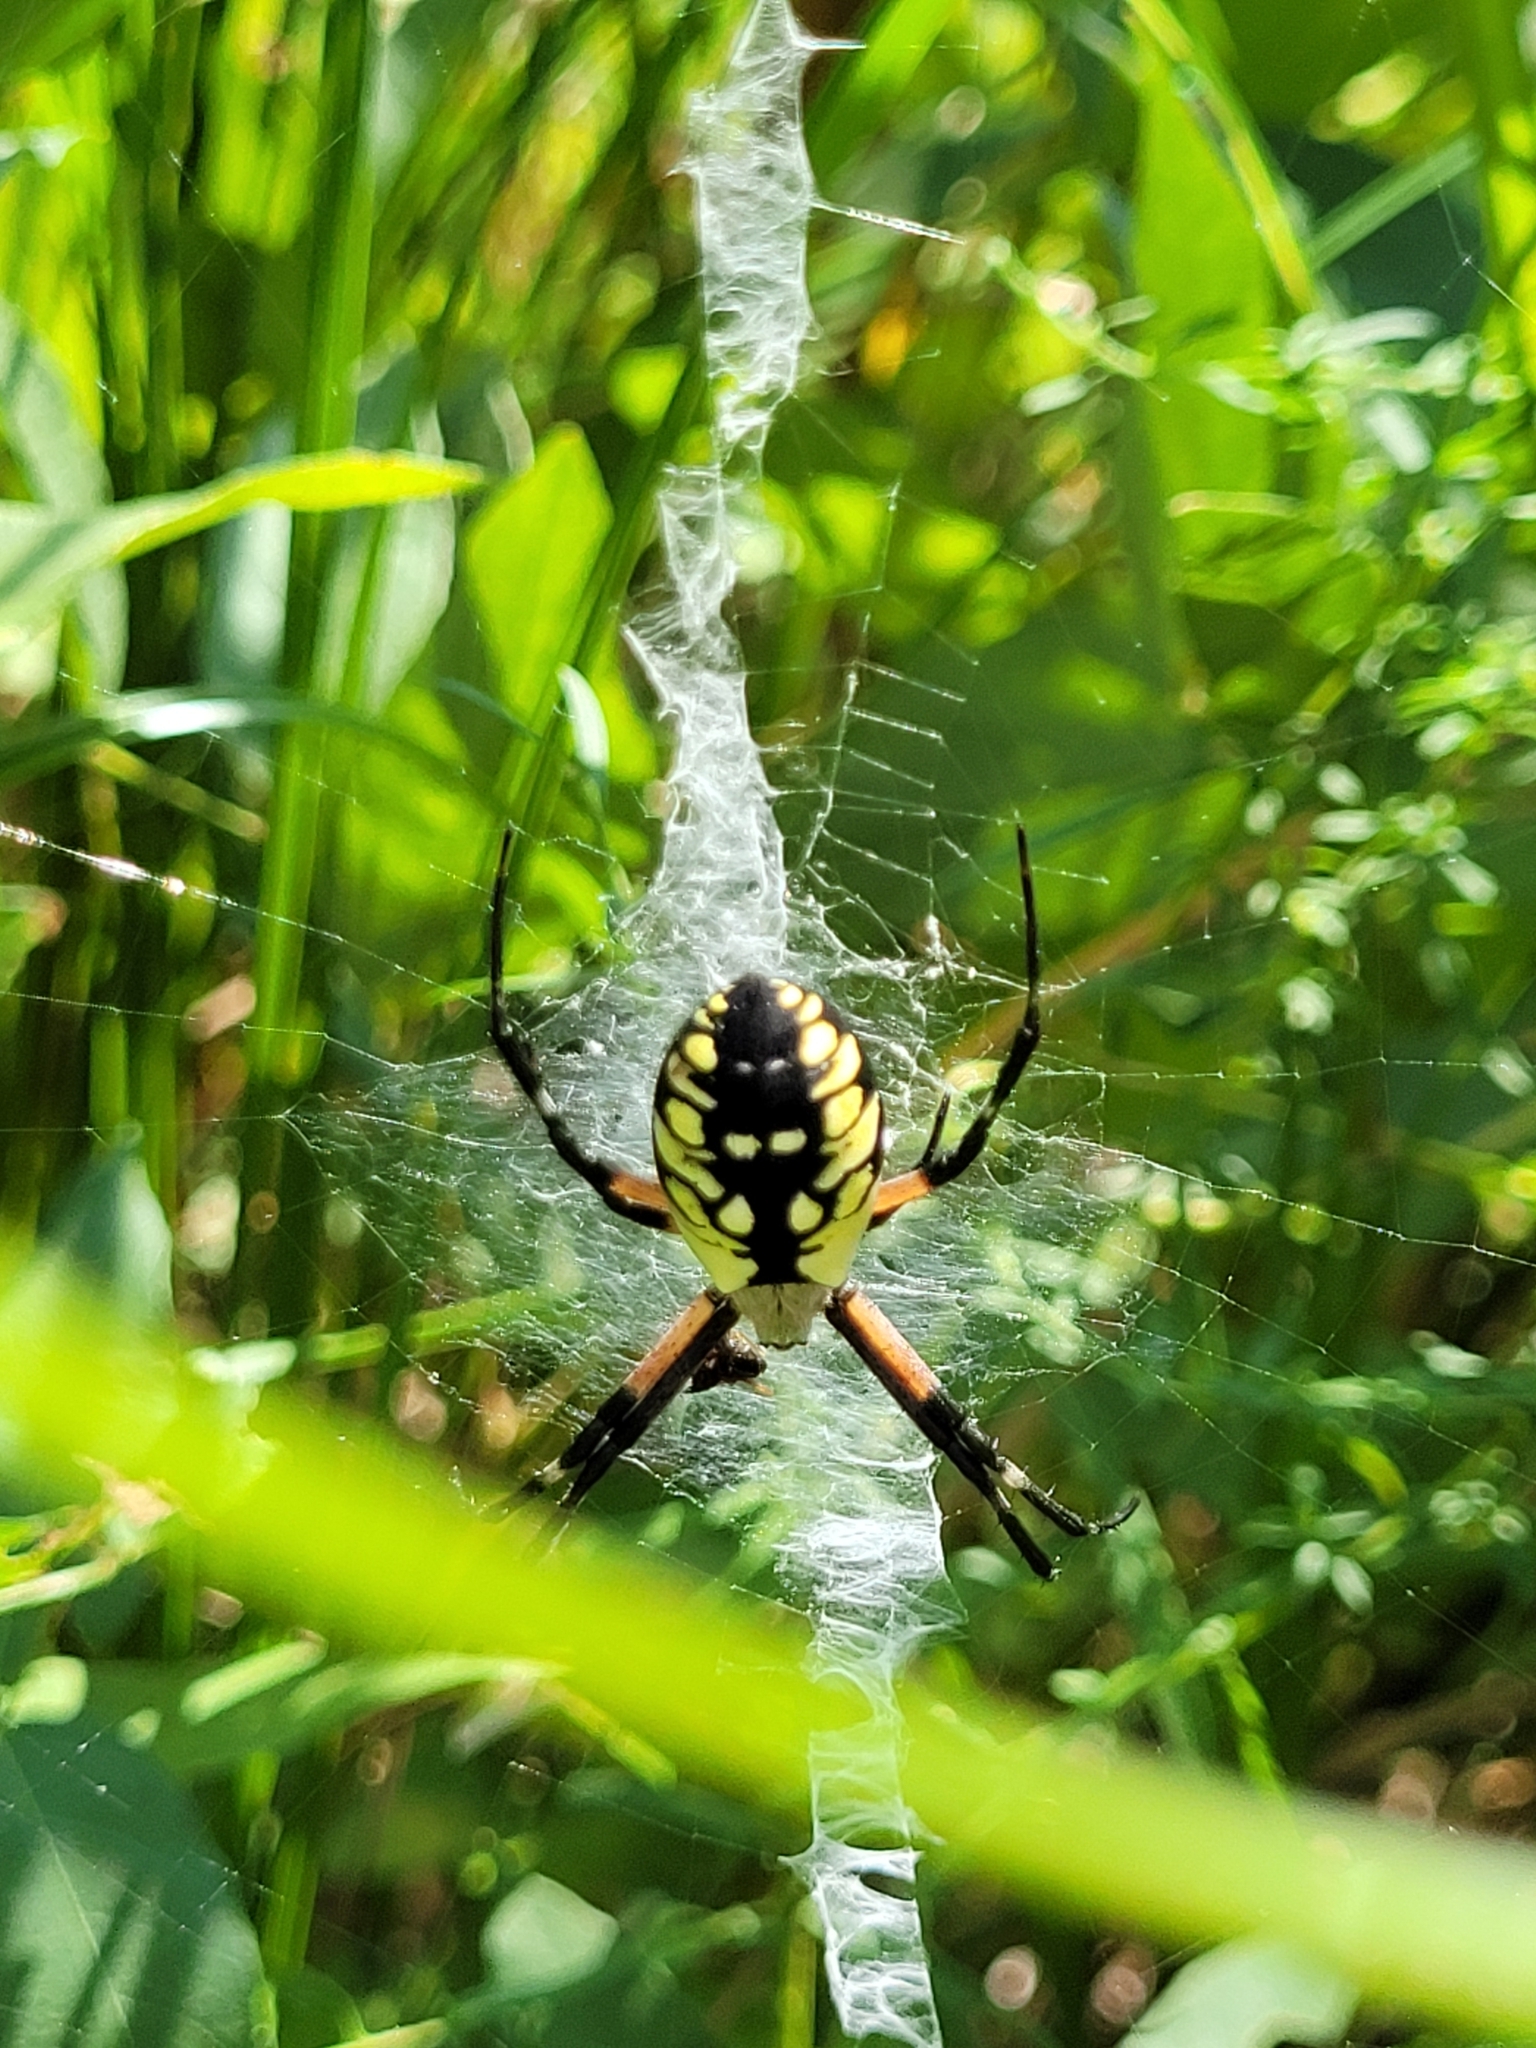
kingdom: Animalia
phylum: Arthropoda
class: Arachnida
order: Araneae
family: Araneidae
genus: Argiope
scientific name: Argiope aurantia
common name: Orb weavers
